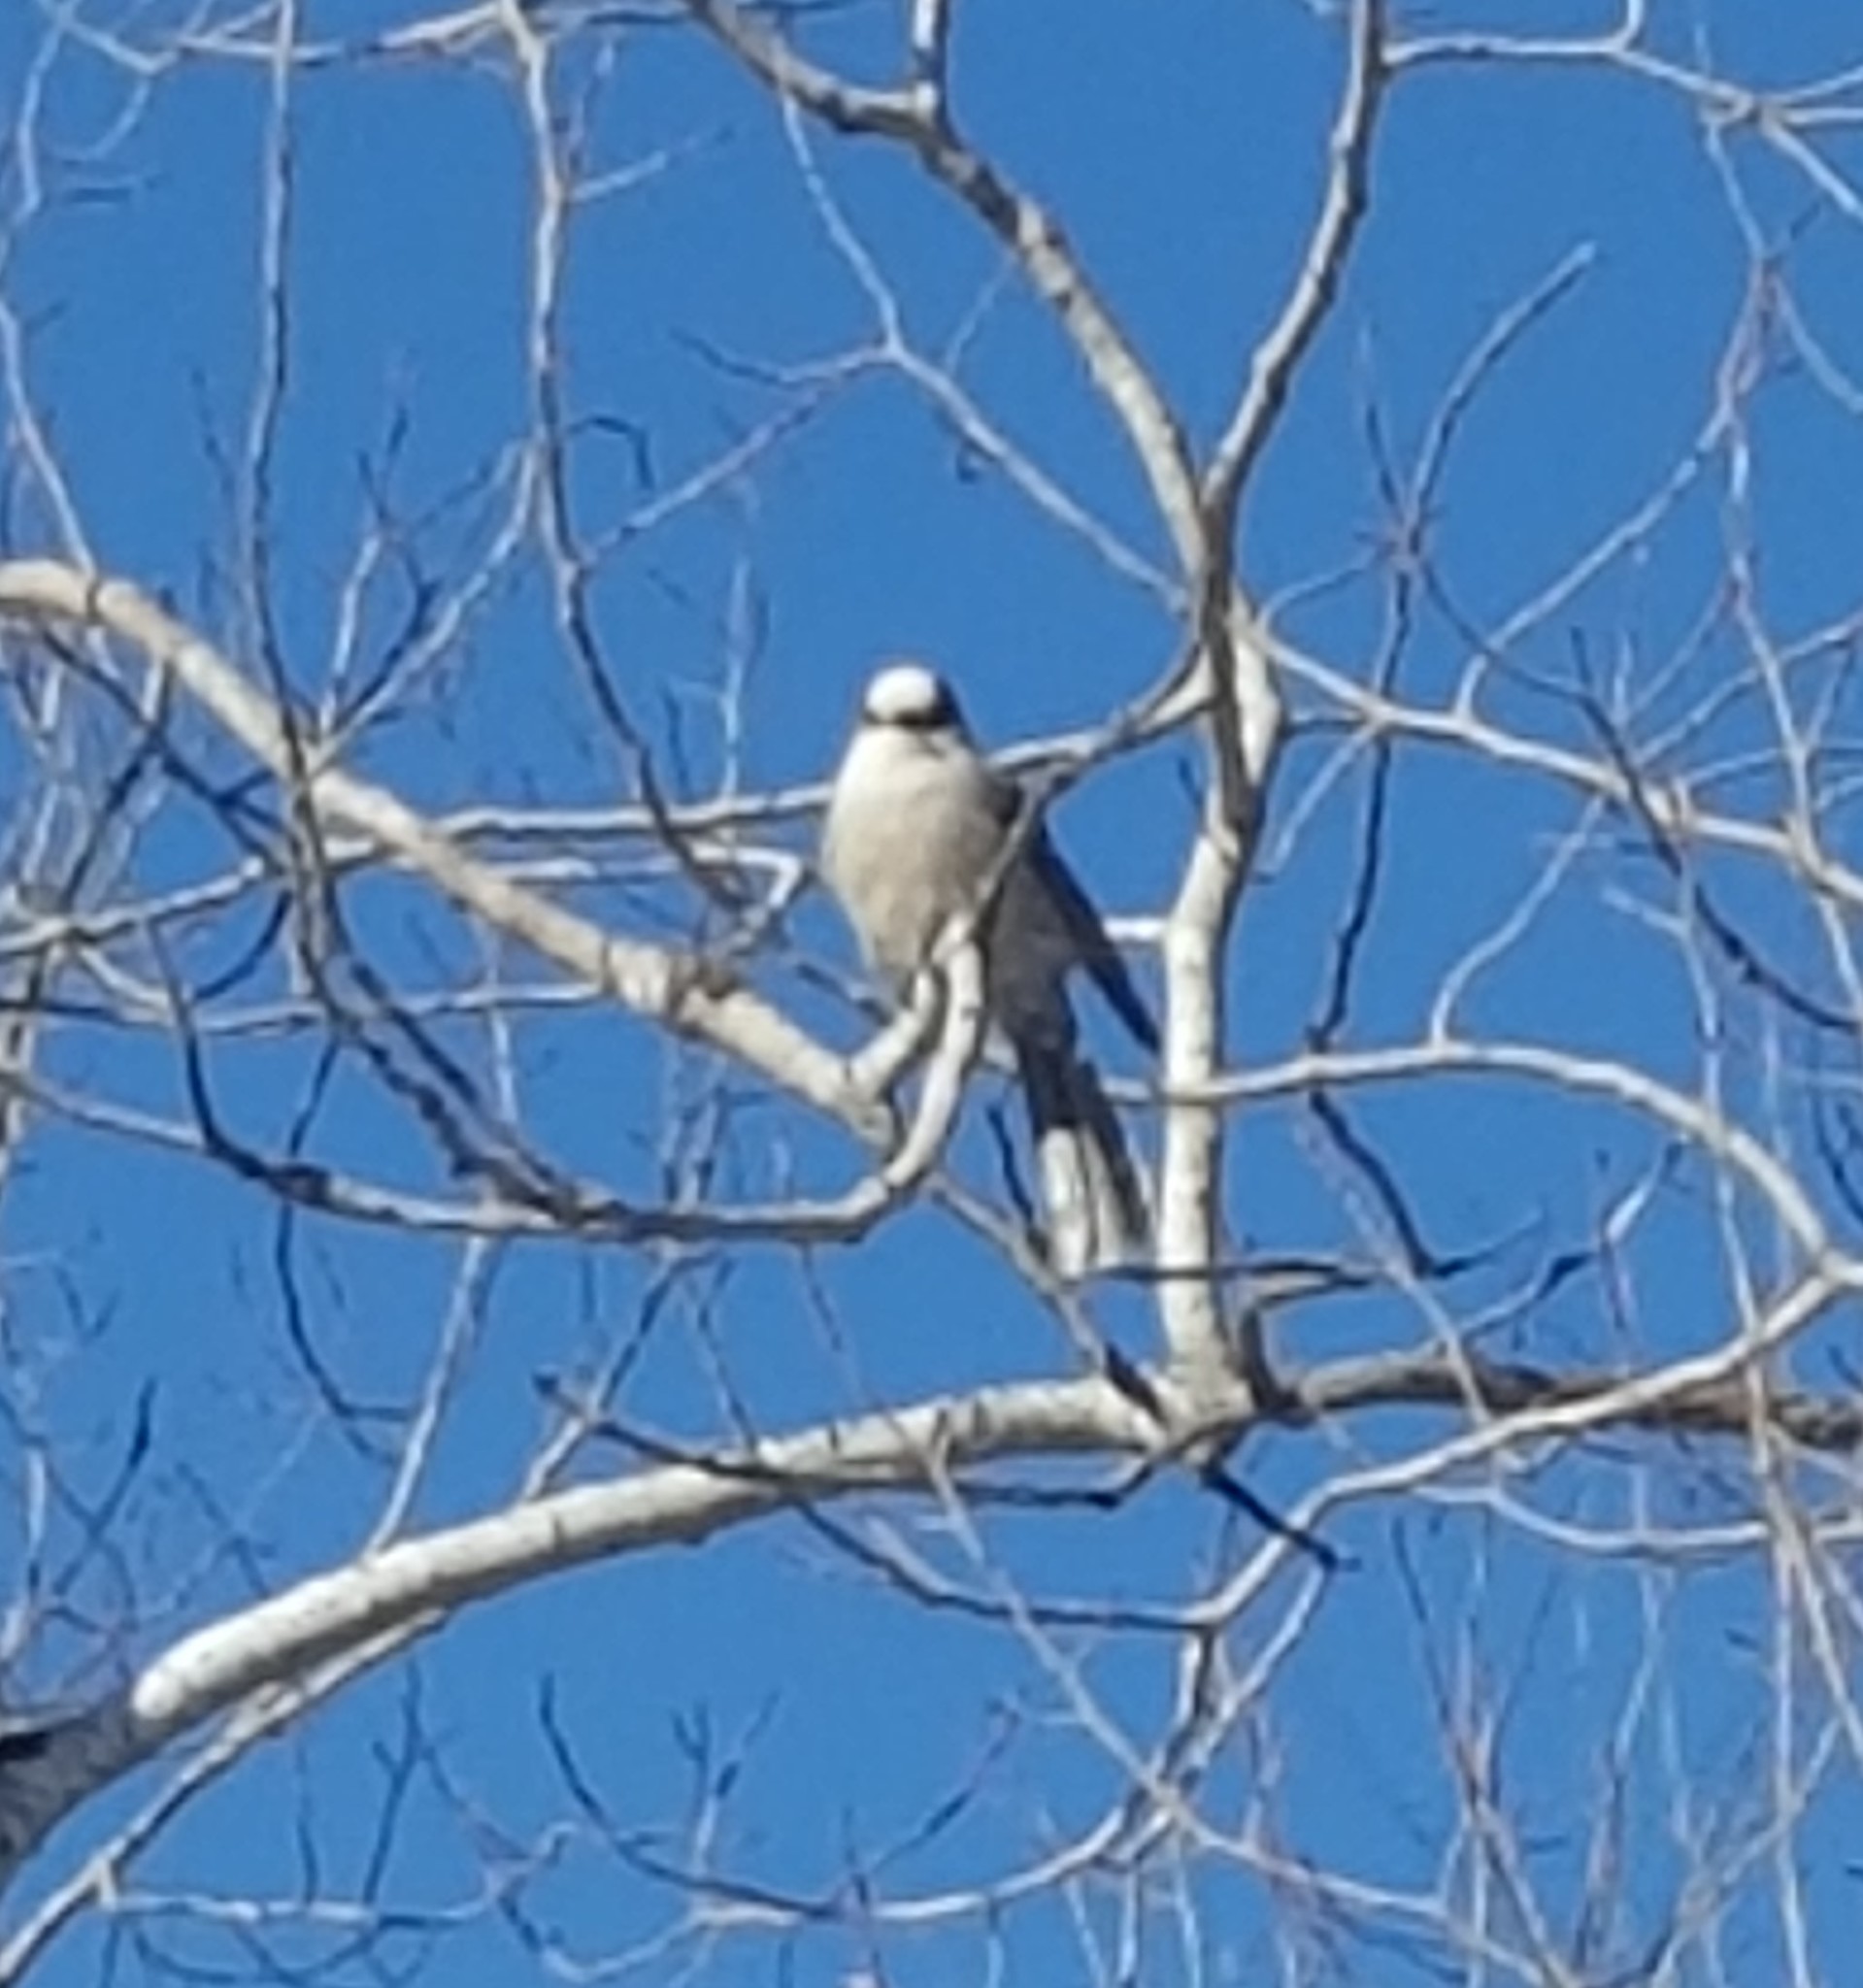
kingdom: Animalia
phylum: Chordata
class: Aves
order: Passeriformes
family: Corvidae
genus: Perisoreus
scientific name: Perisoreus canadensis
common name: Gray jay
